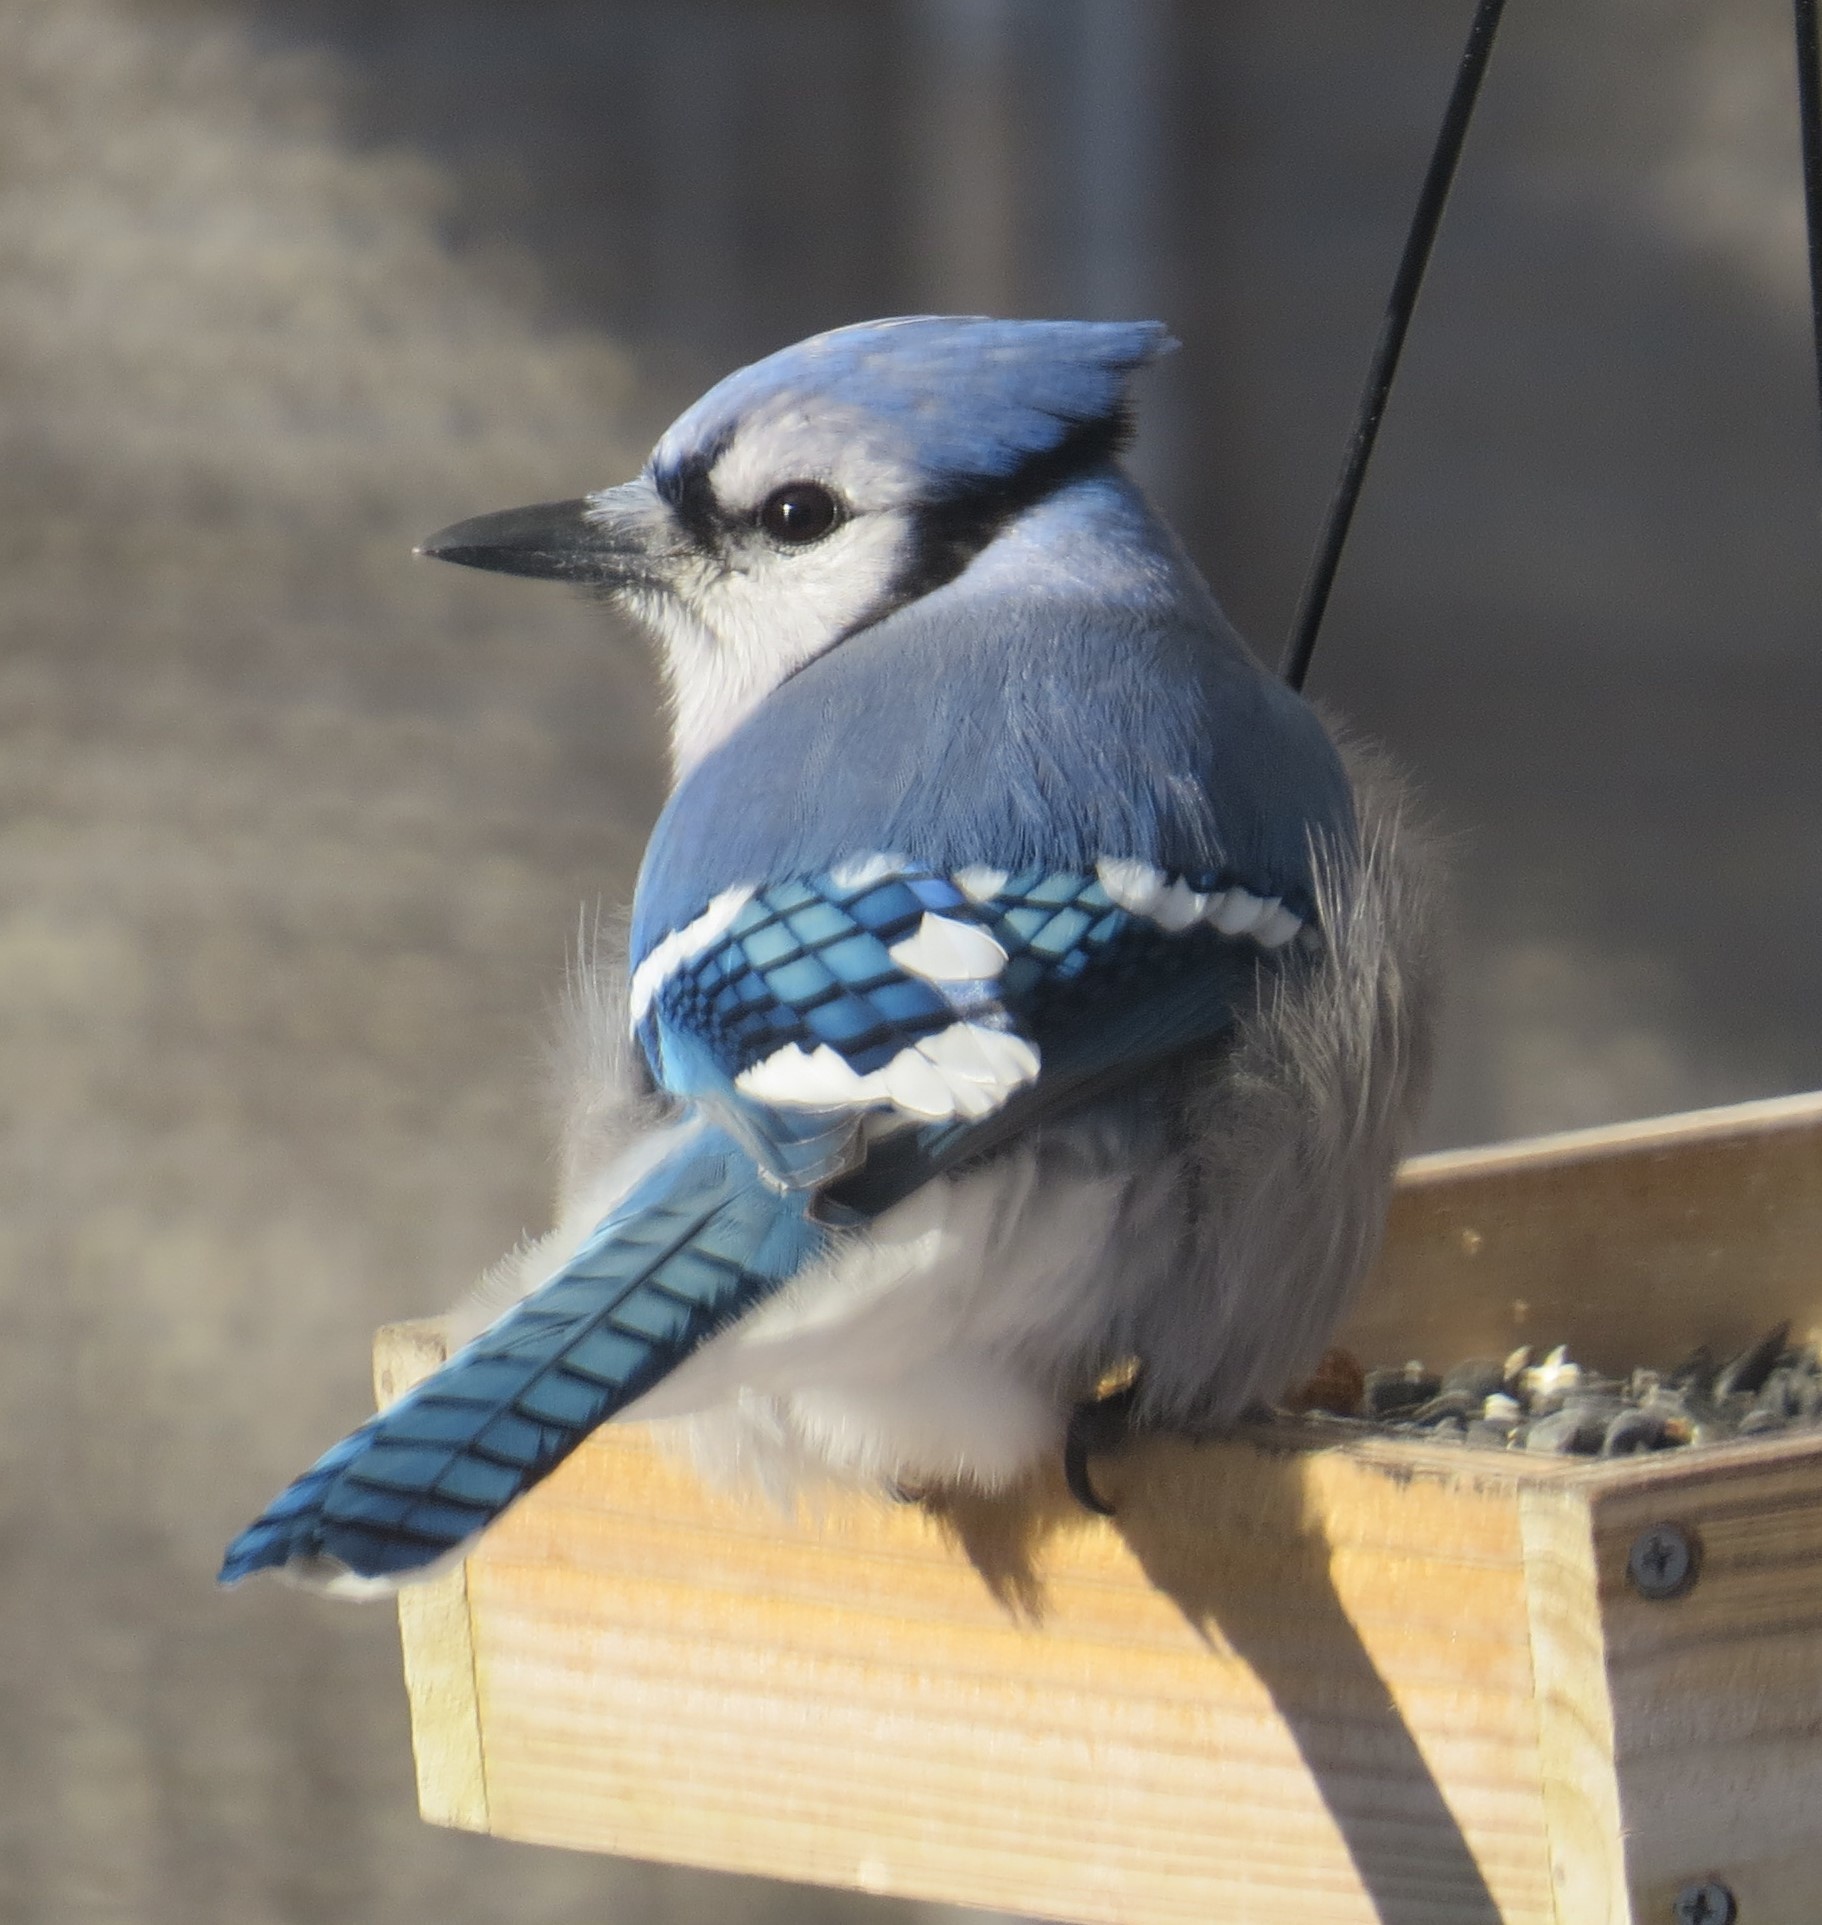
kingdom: Animalia
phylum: Chordata
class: Aves
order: Passeriformes
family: Corvidae
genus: Cyanocitta
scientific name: Cyanocitta cristata
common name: Blue jay
